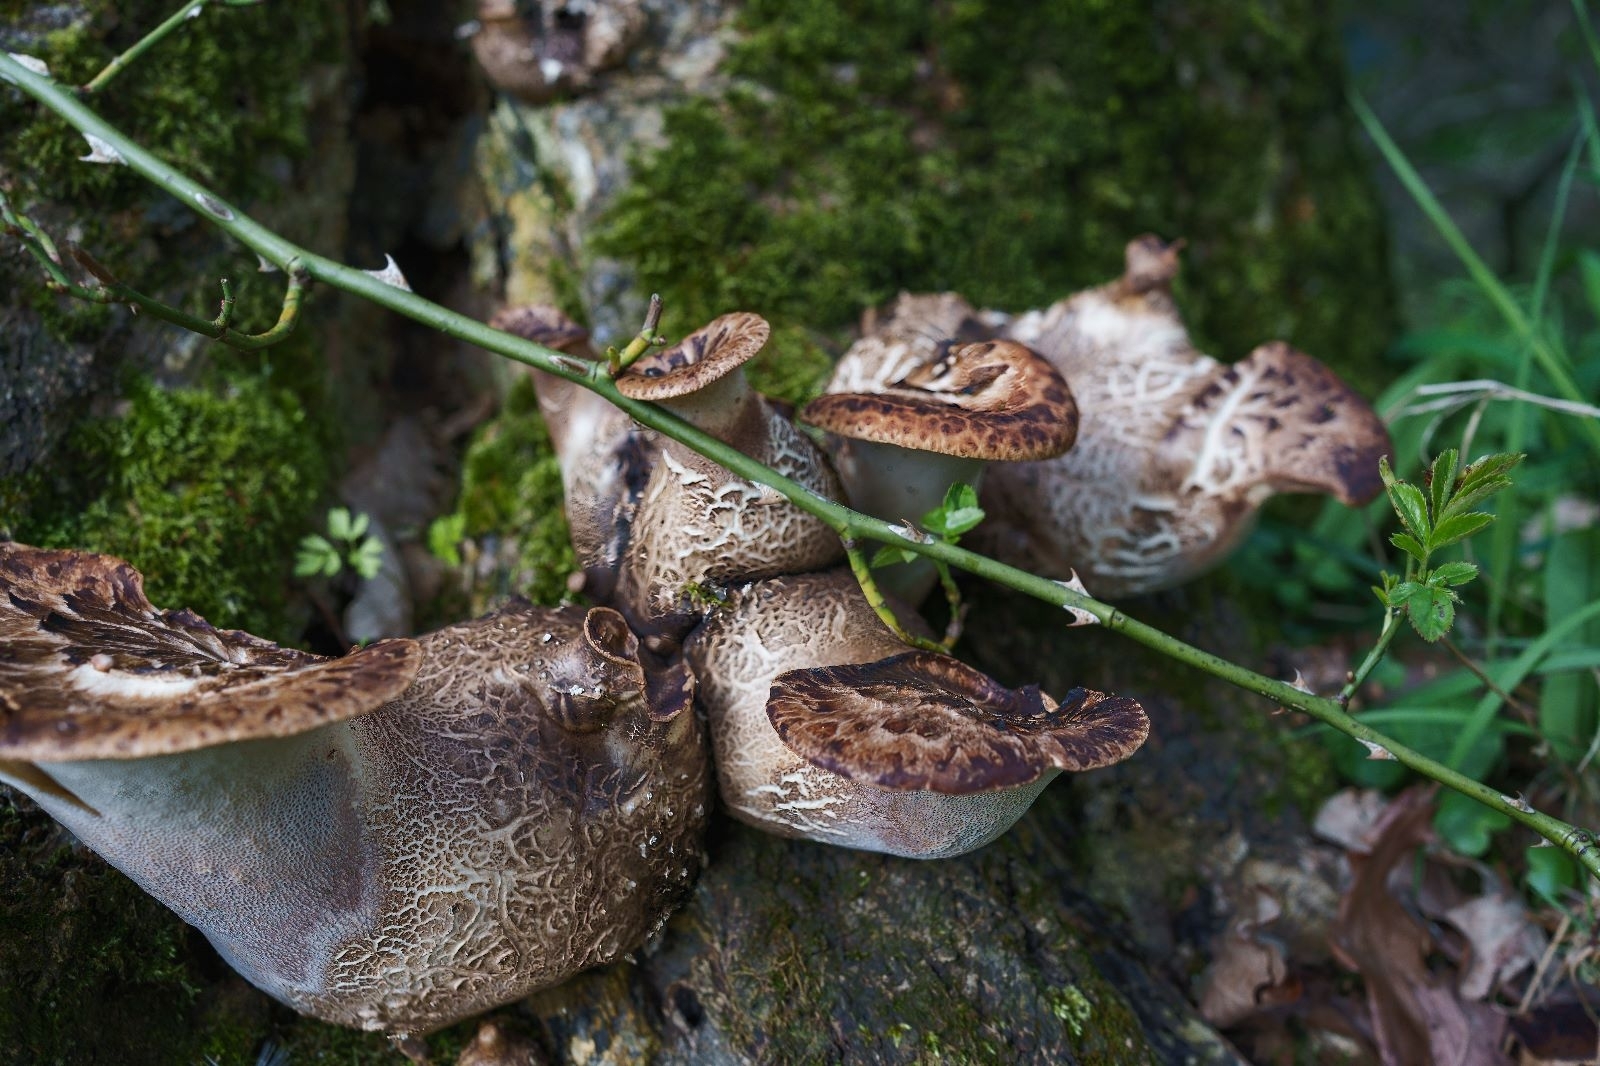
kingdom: Fungi
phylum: Basidiomycota
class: Agaricomycetes
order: Polyporales
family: Polyporaceae
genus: Cerioporus
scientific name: Cerioporus squamosus
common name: Dryad's saddle
